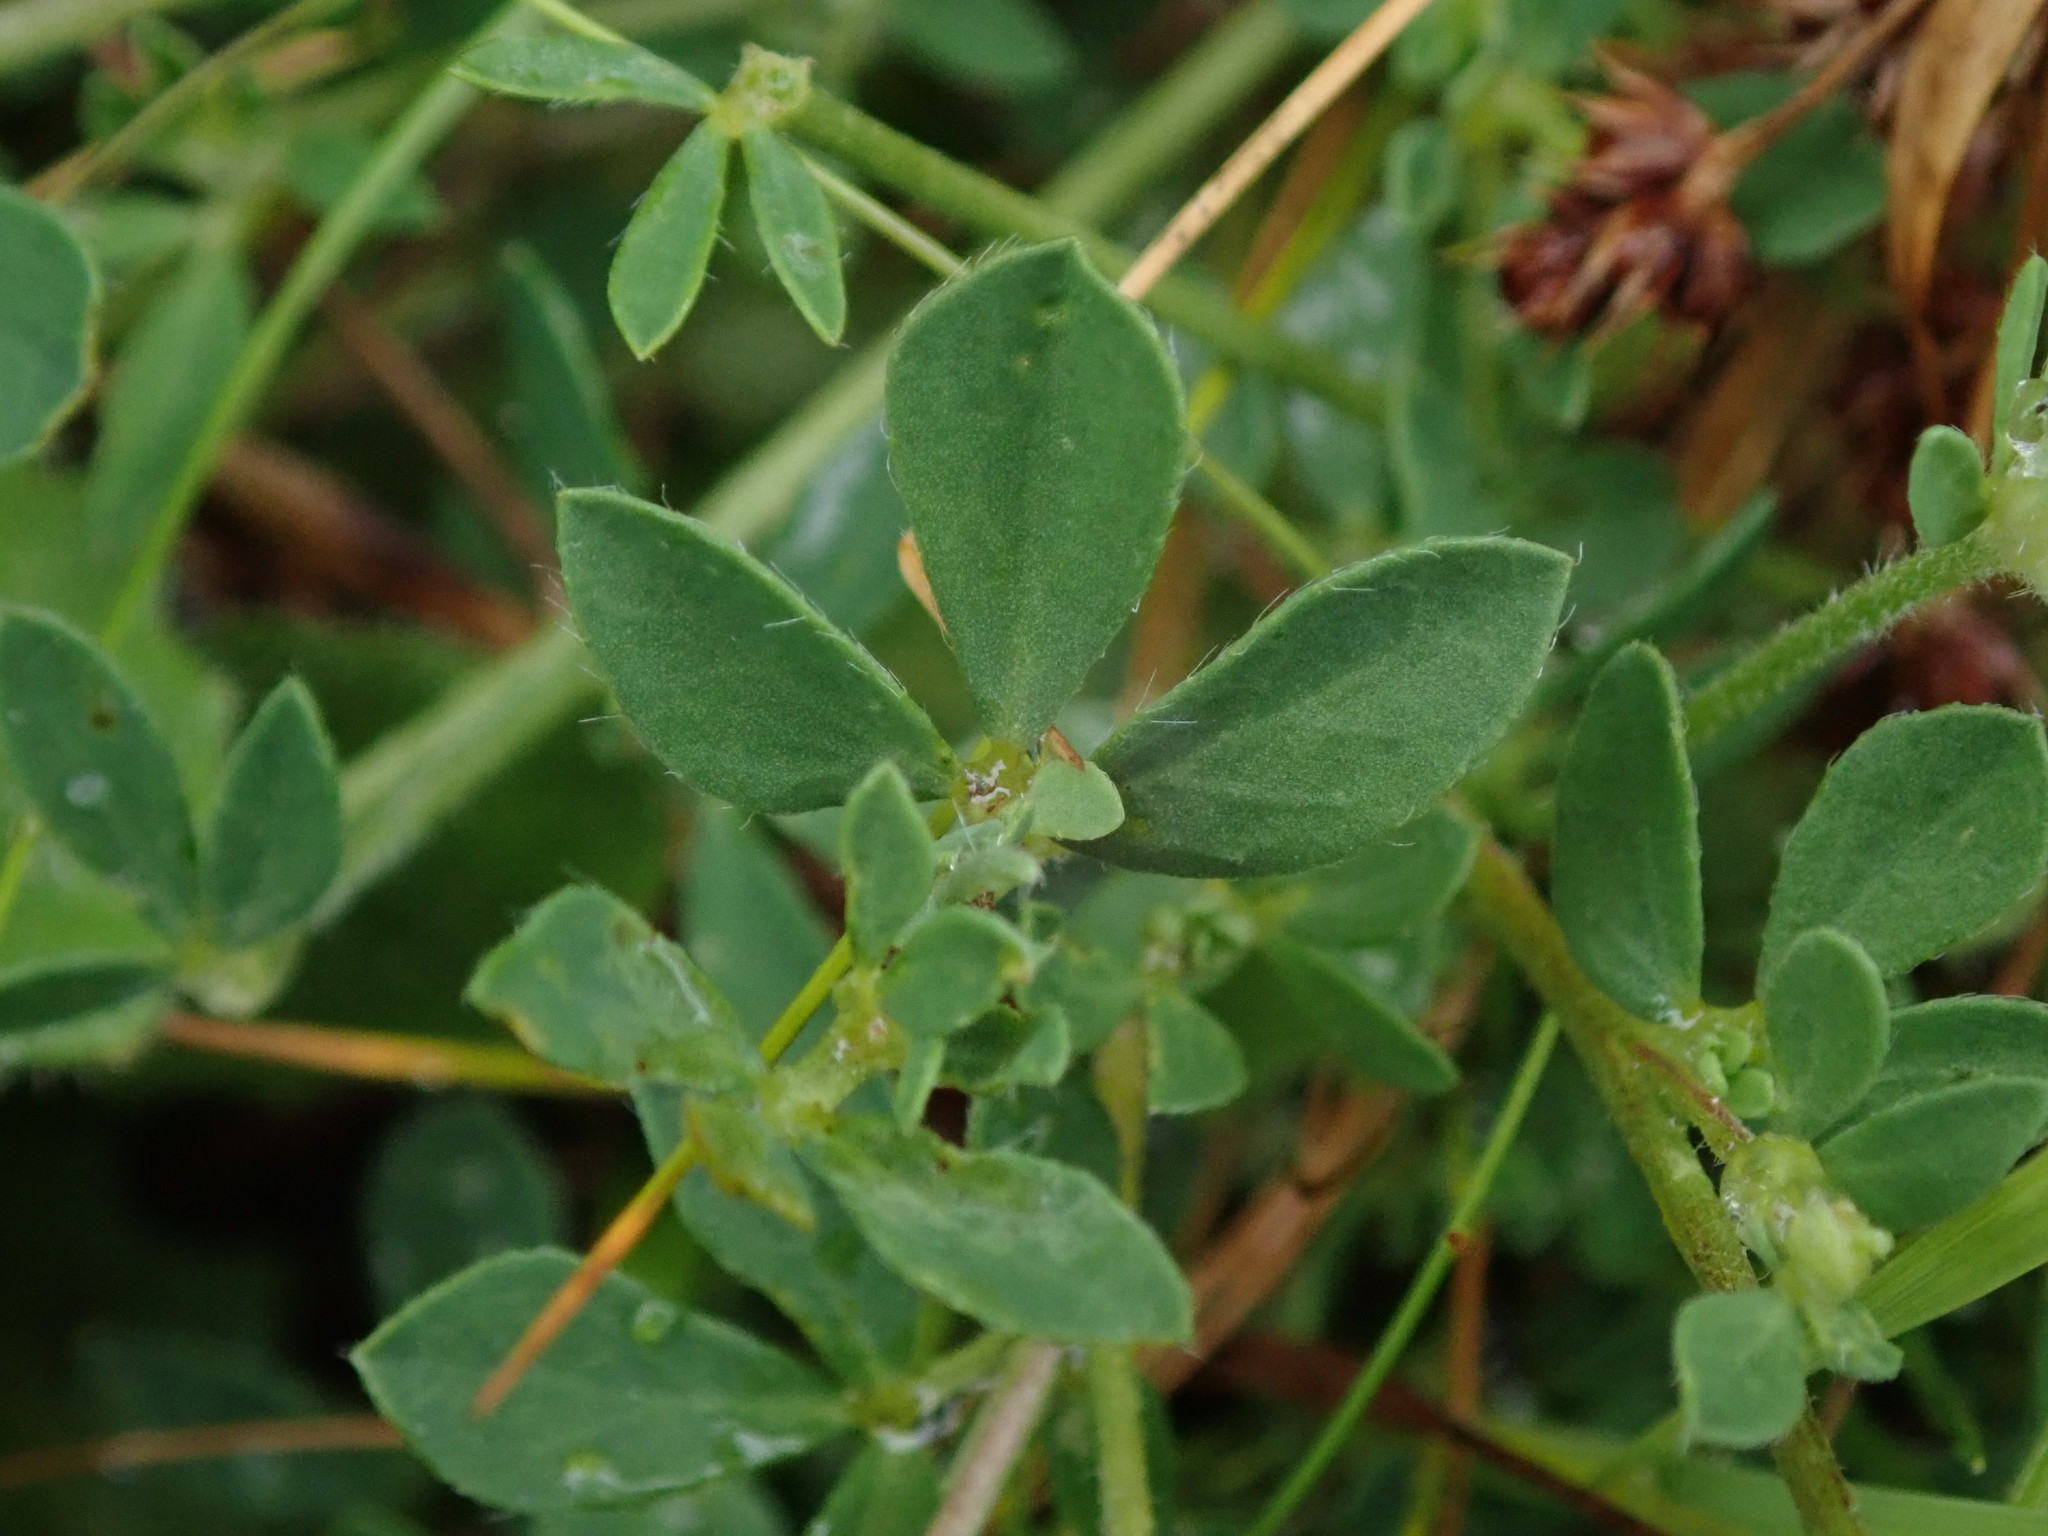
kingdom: Plantae
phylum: Tracheophyta
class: Magnoliopsida
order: Fabales
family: Fabaceae
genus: Lotus
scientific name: Lotus corniculatus
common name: Common bird's-foot-trefoil
